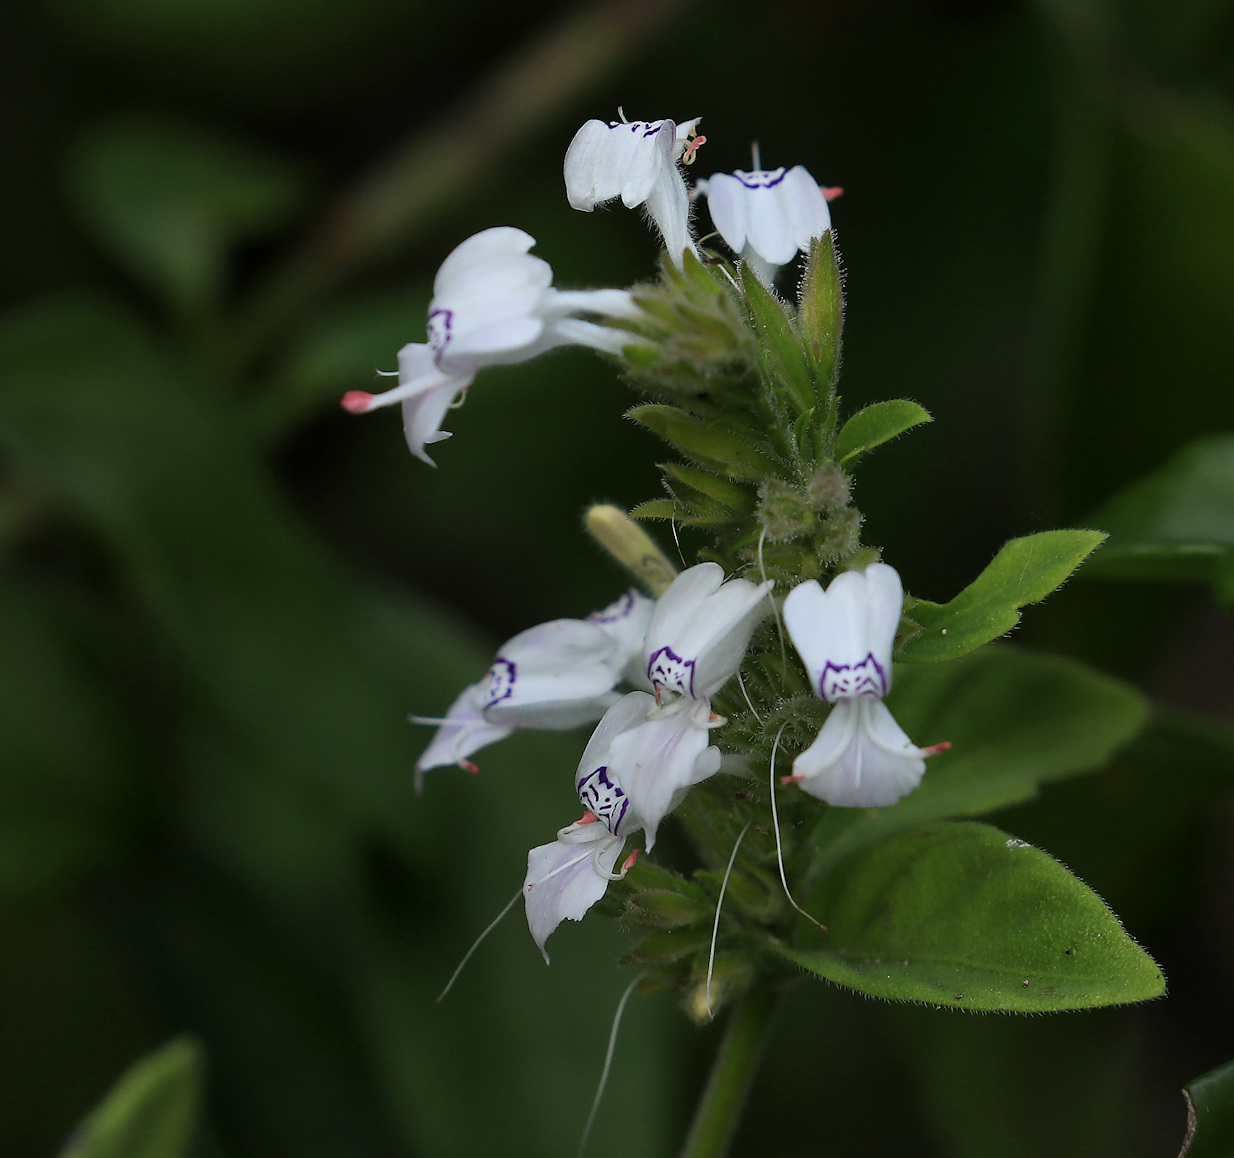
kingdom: Plantae
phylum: Tracheophyta
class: Magnoliopsida
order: Lamiales
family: Acanthaceae
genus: Hypoestes
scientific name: Hypoestes forskaolii
